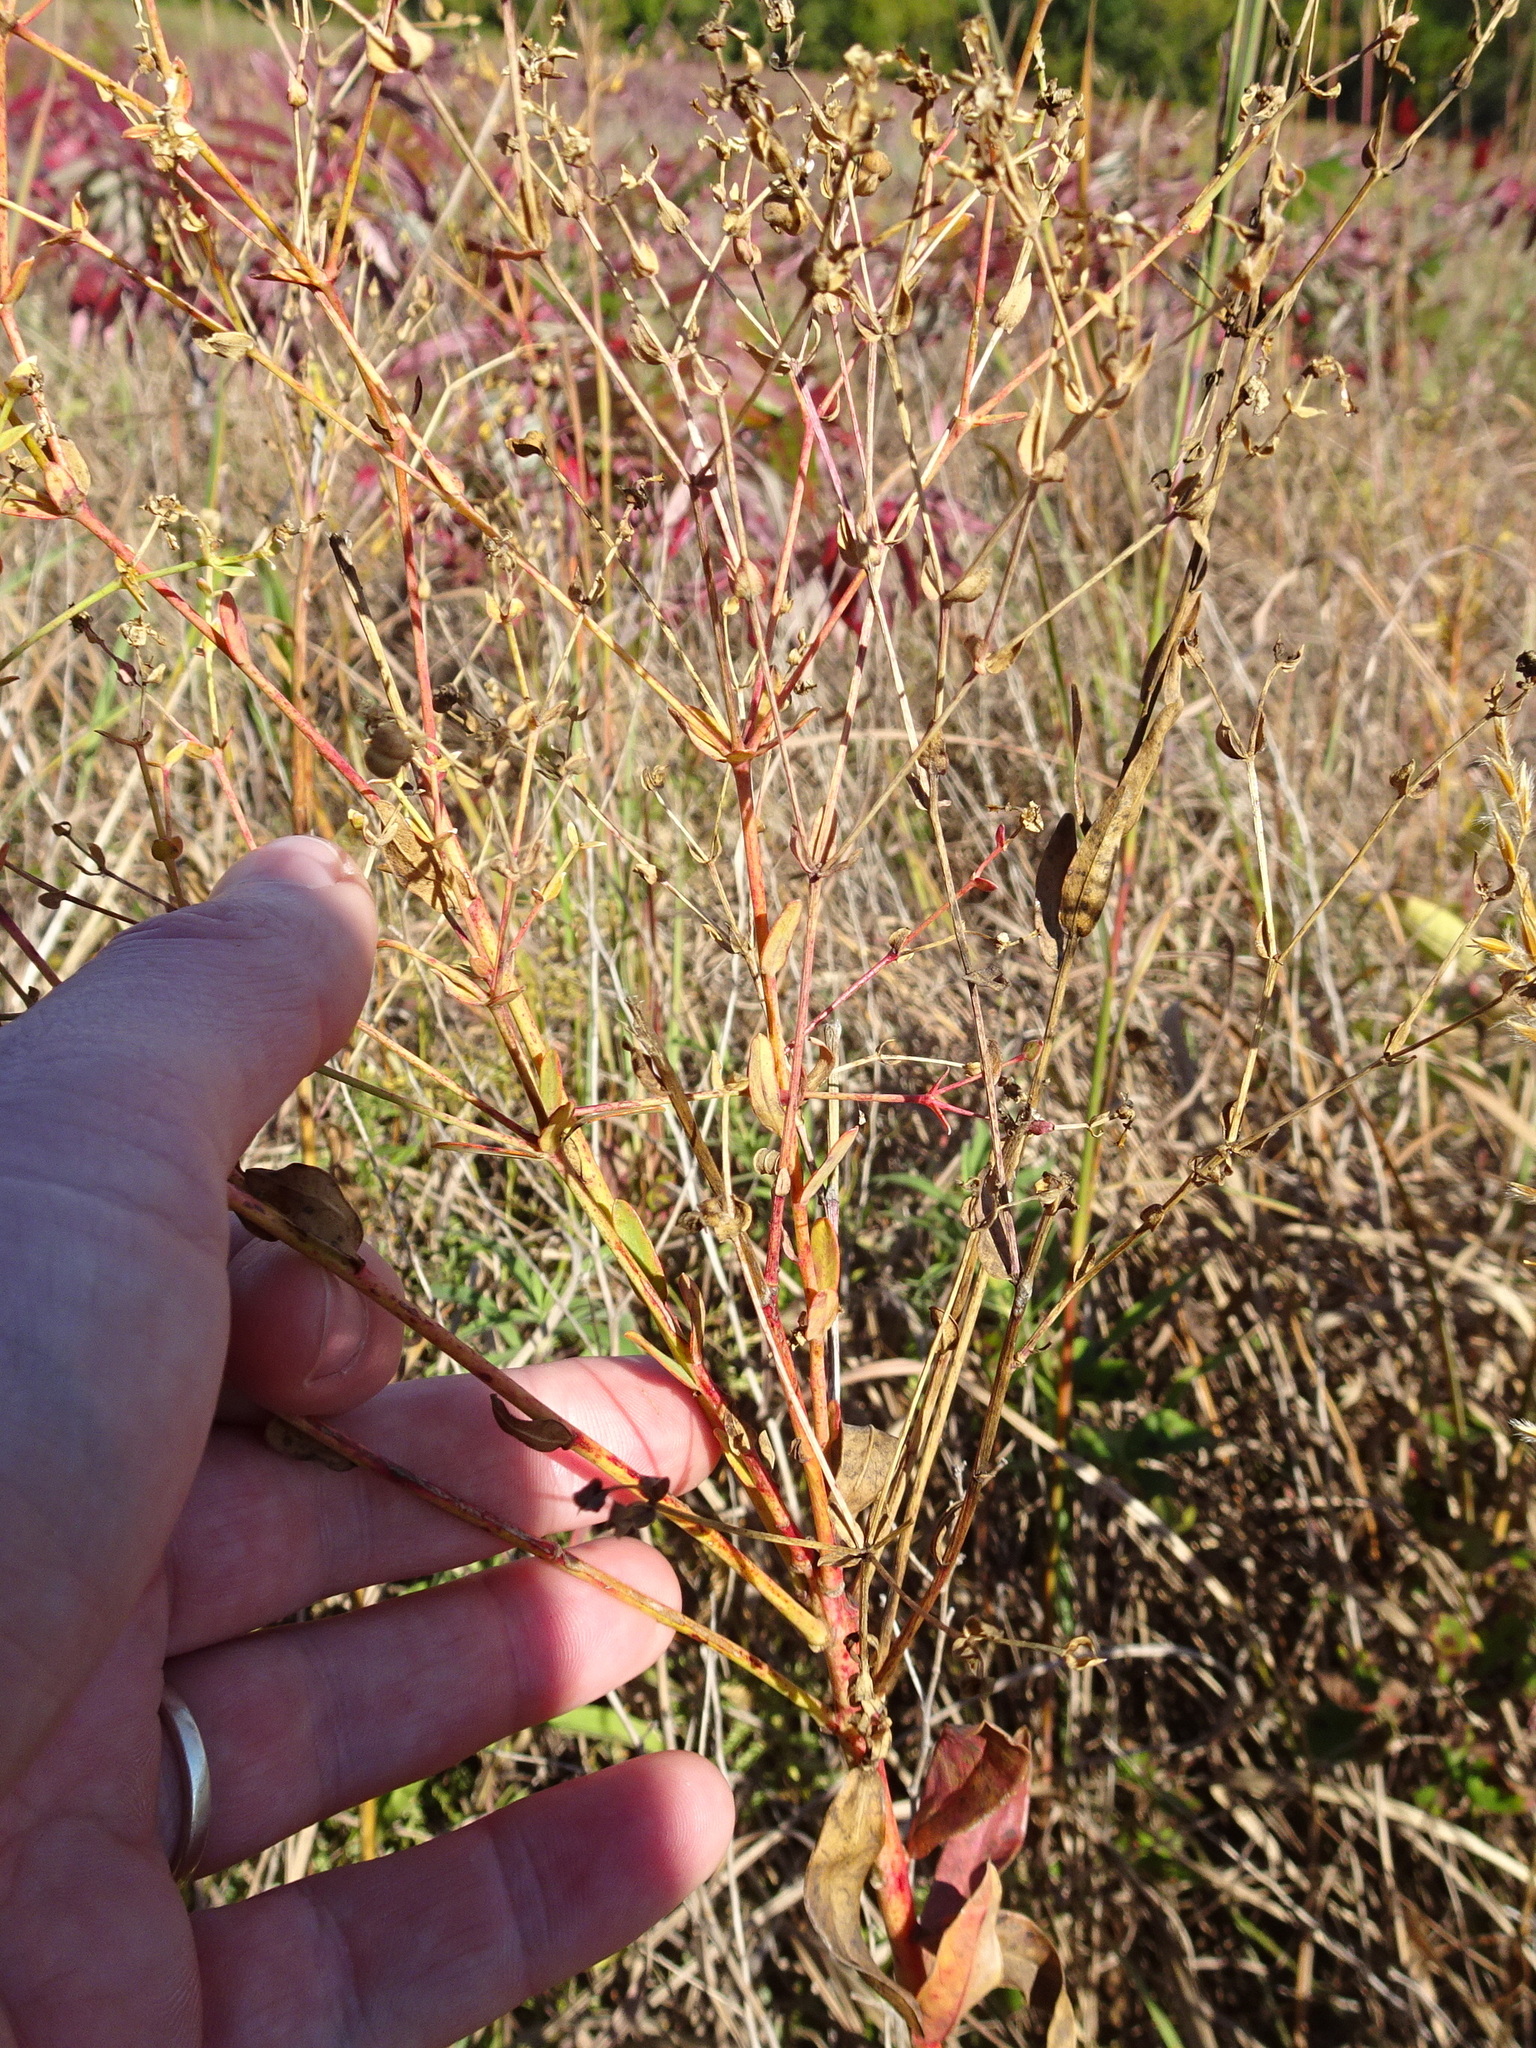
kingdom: Plantae
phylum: Tracheophyta
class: Magnoliopsida
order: Malpighiales
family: Euphorbiaceae
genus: Euphorbia
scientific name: Euphorbia corollata
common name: Flowering spurge
